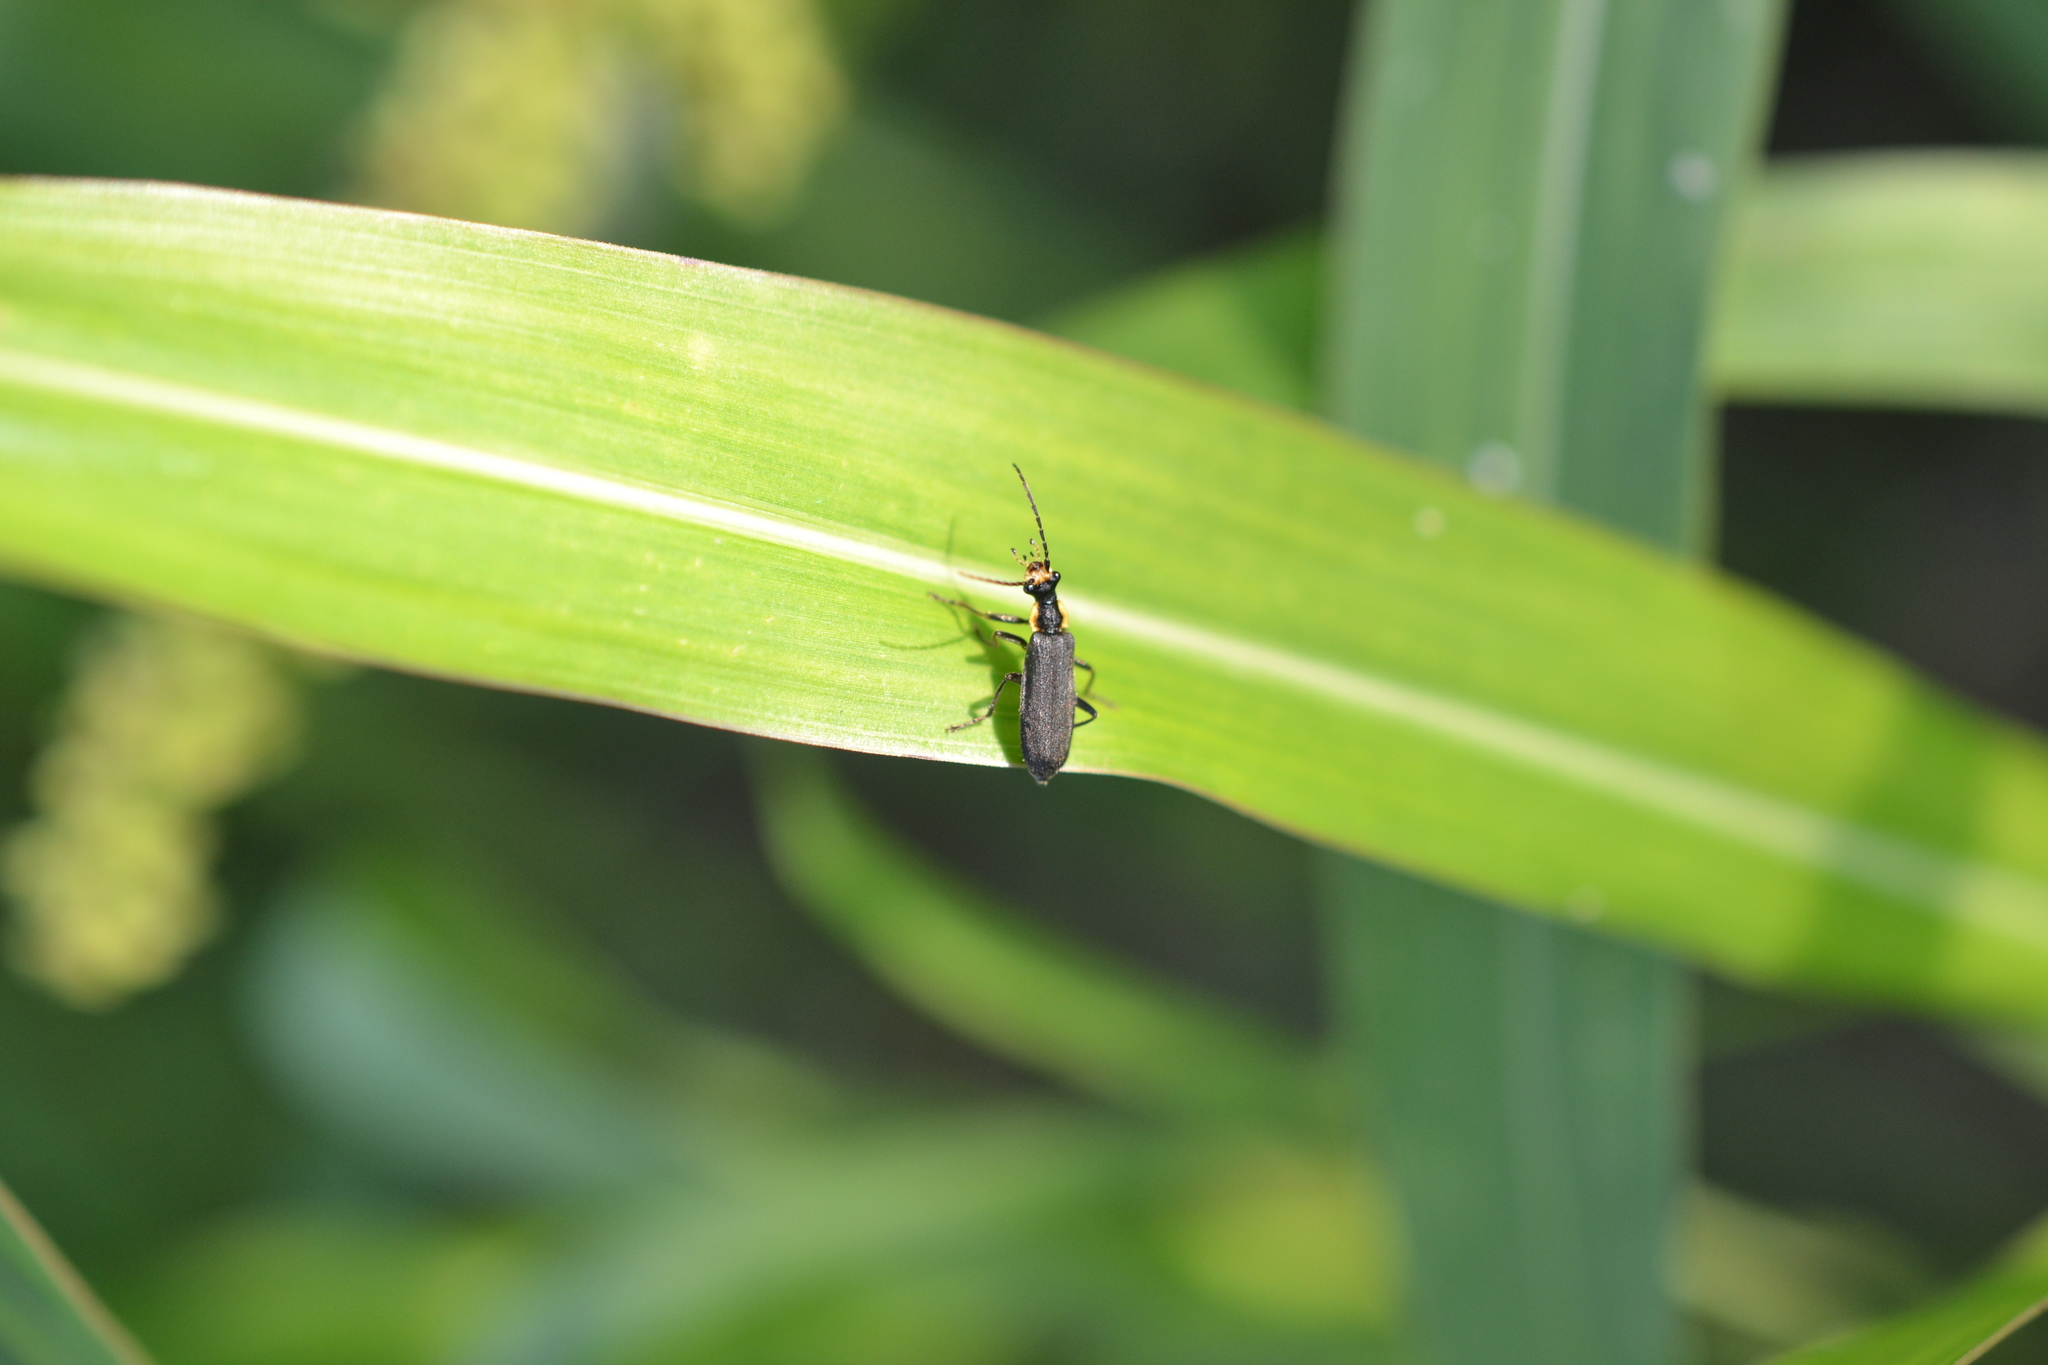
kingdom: Animalia
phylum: Arthropoda
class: Insecta
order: Coleoptera
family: Cantharidae
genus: Podabrus
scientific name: Podabrus rugosulus
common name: Wrinkled soldier beetle
